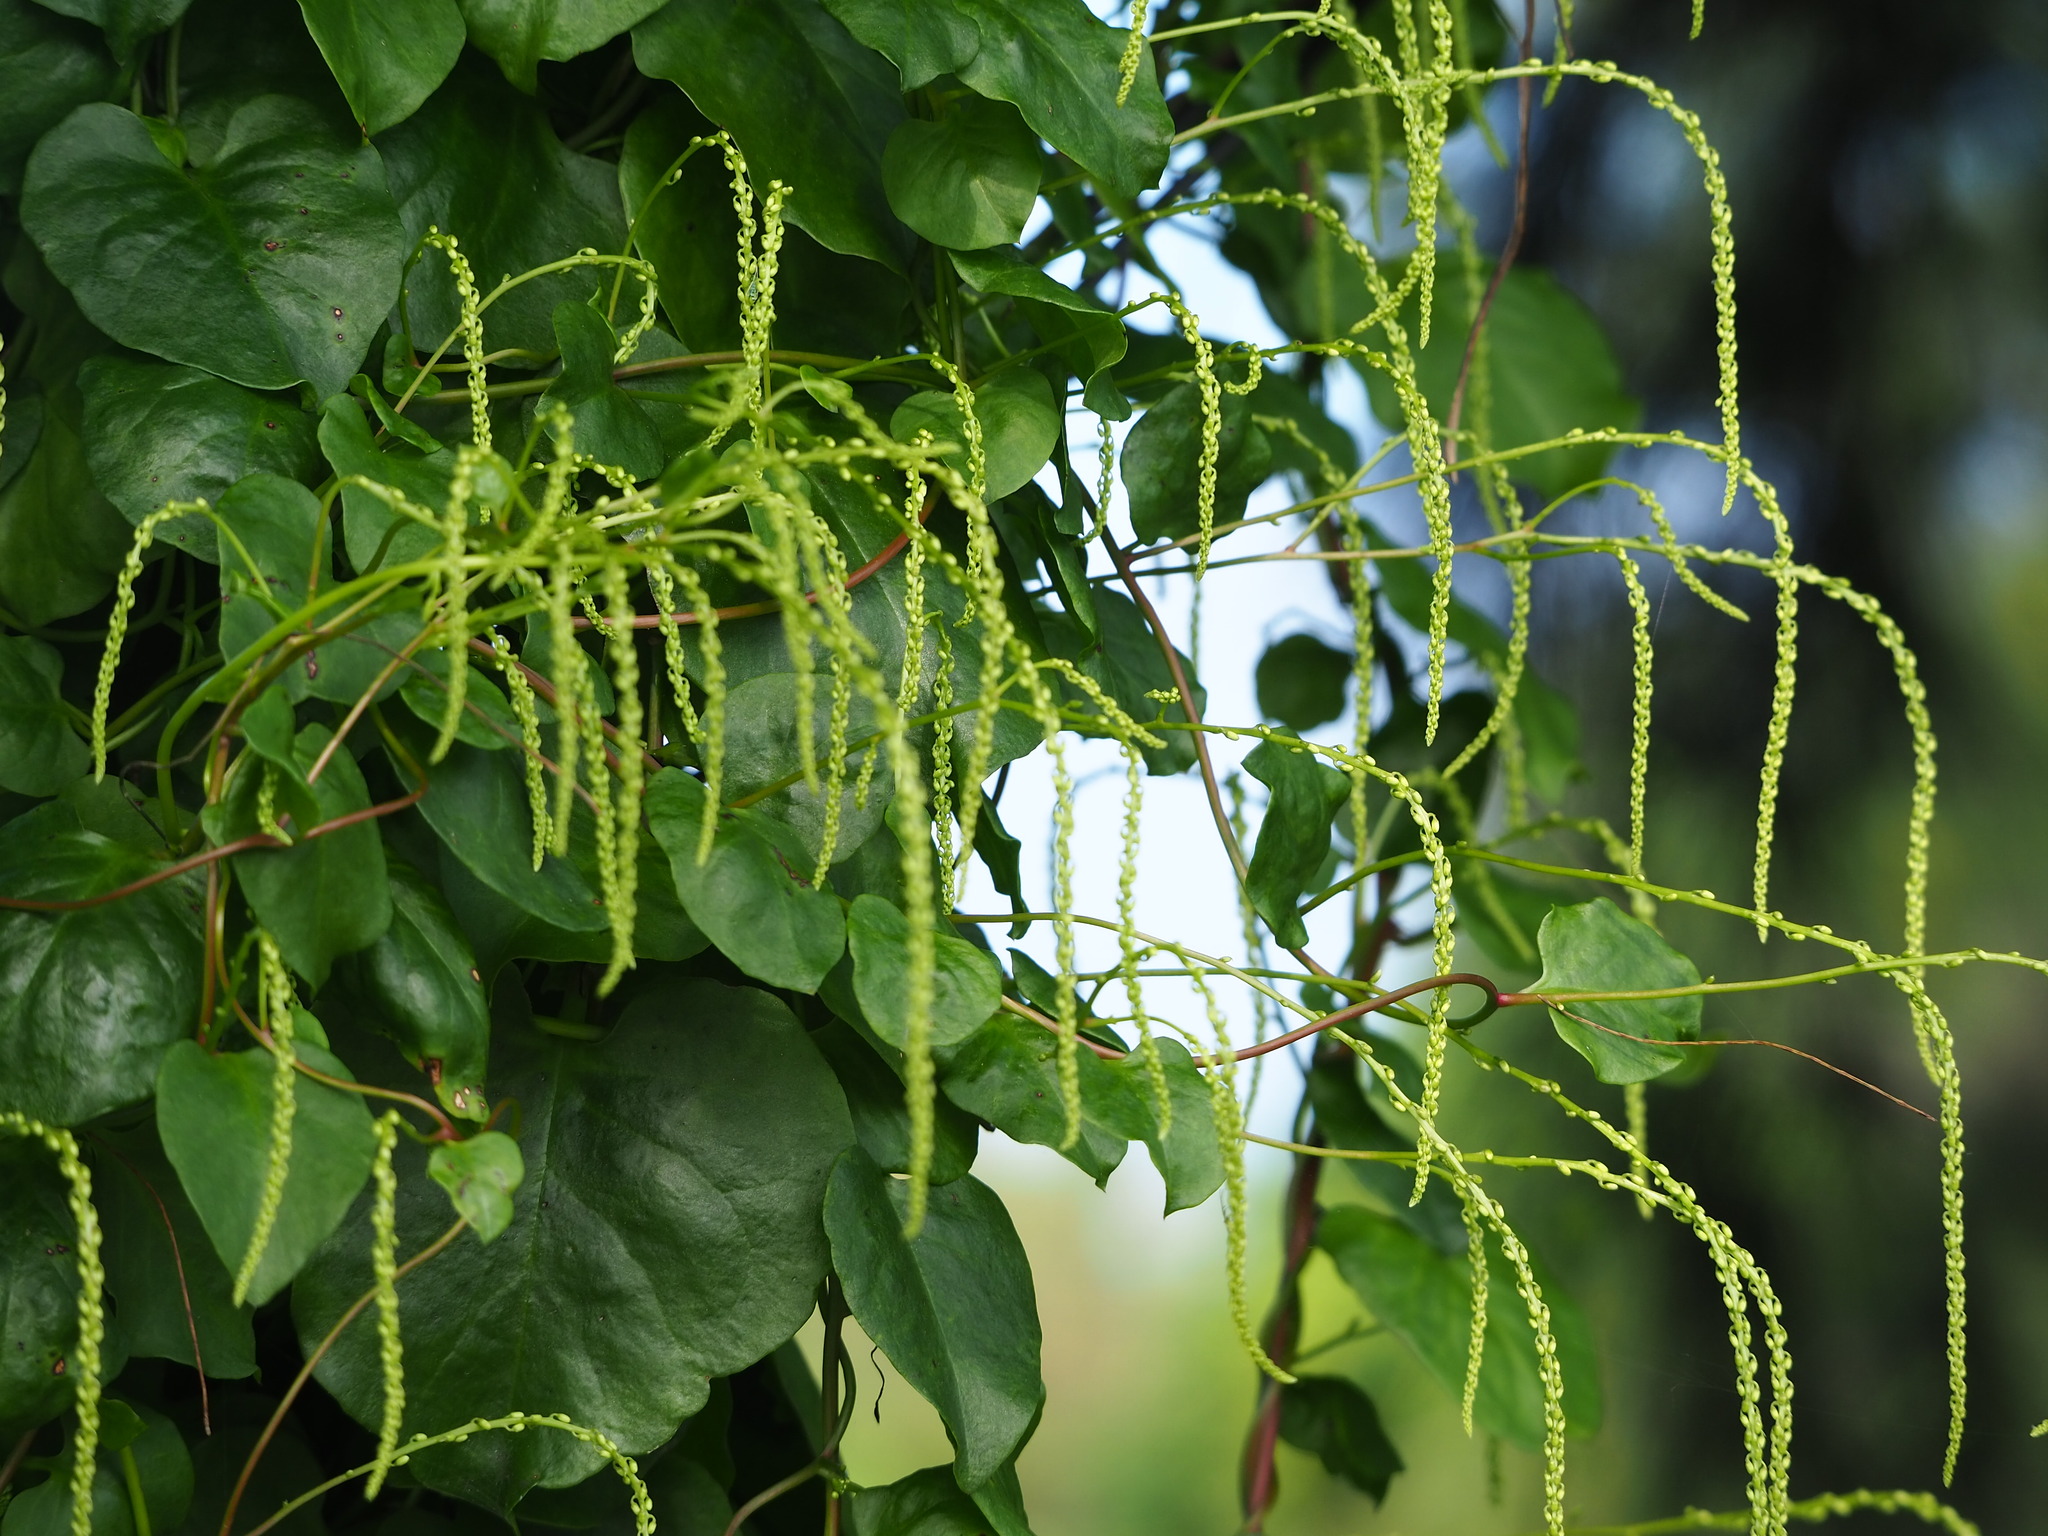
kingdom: Plantae
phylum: Tracheophyta
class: Magnoliopsida
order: Caryophyllales
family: Basellaceae
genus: Anredera
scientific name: Anredera cordifolia
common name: Heartleaf madeiravine
